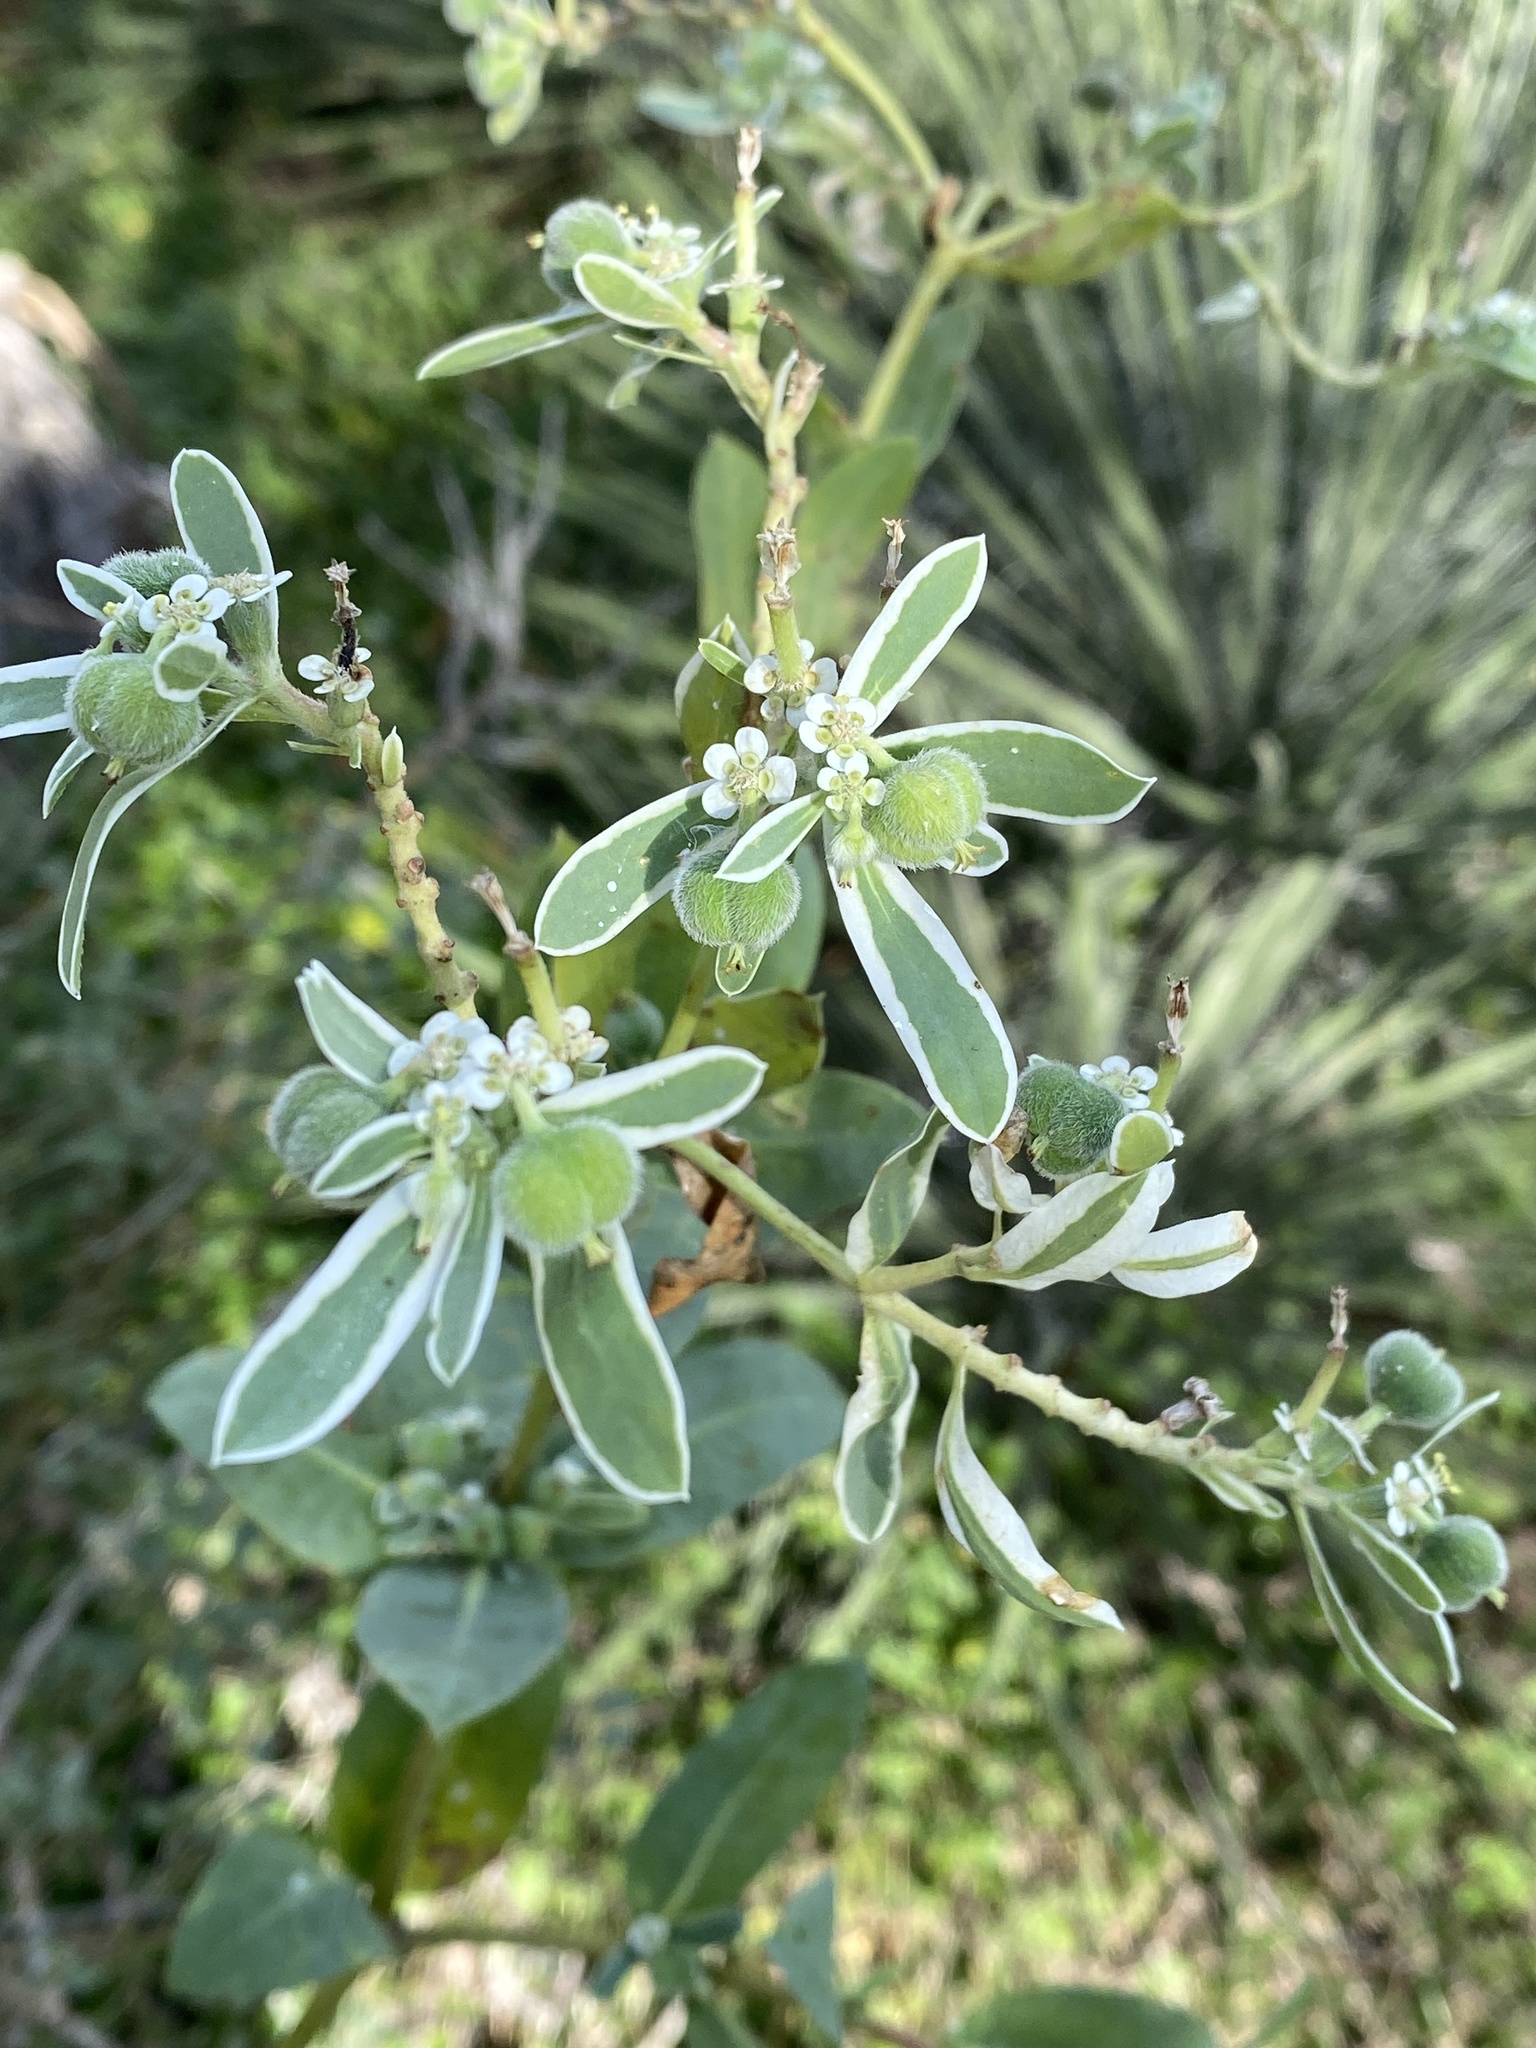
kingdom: Plantae
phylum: Tracheophyta
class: Magnoliopsida
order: Malpighiales
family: Euphorbiaceae
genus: Euphorbia
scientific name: Euphorbia marginata
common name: Ghostweed
